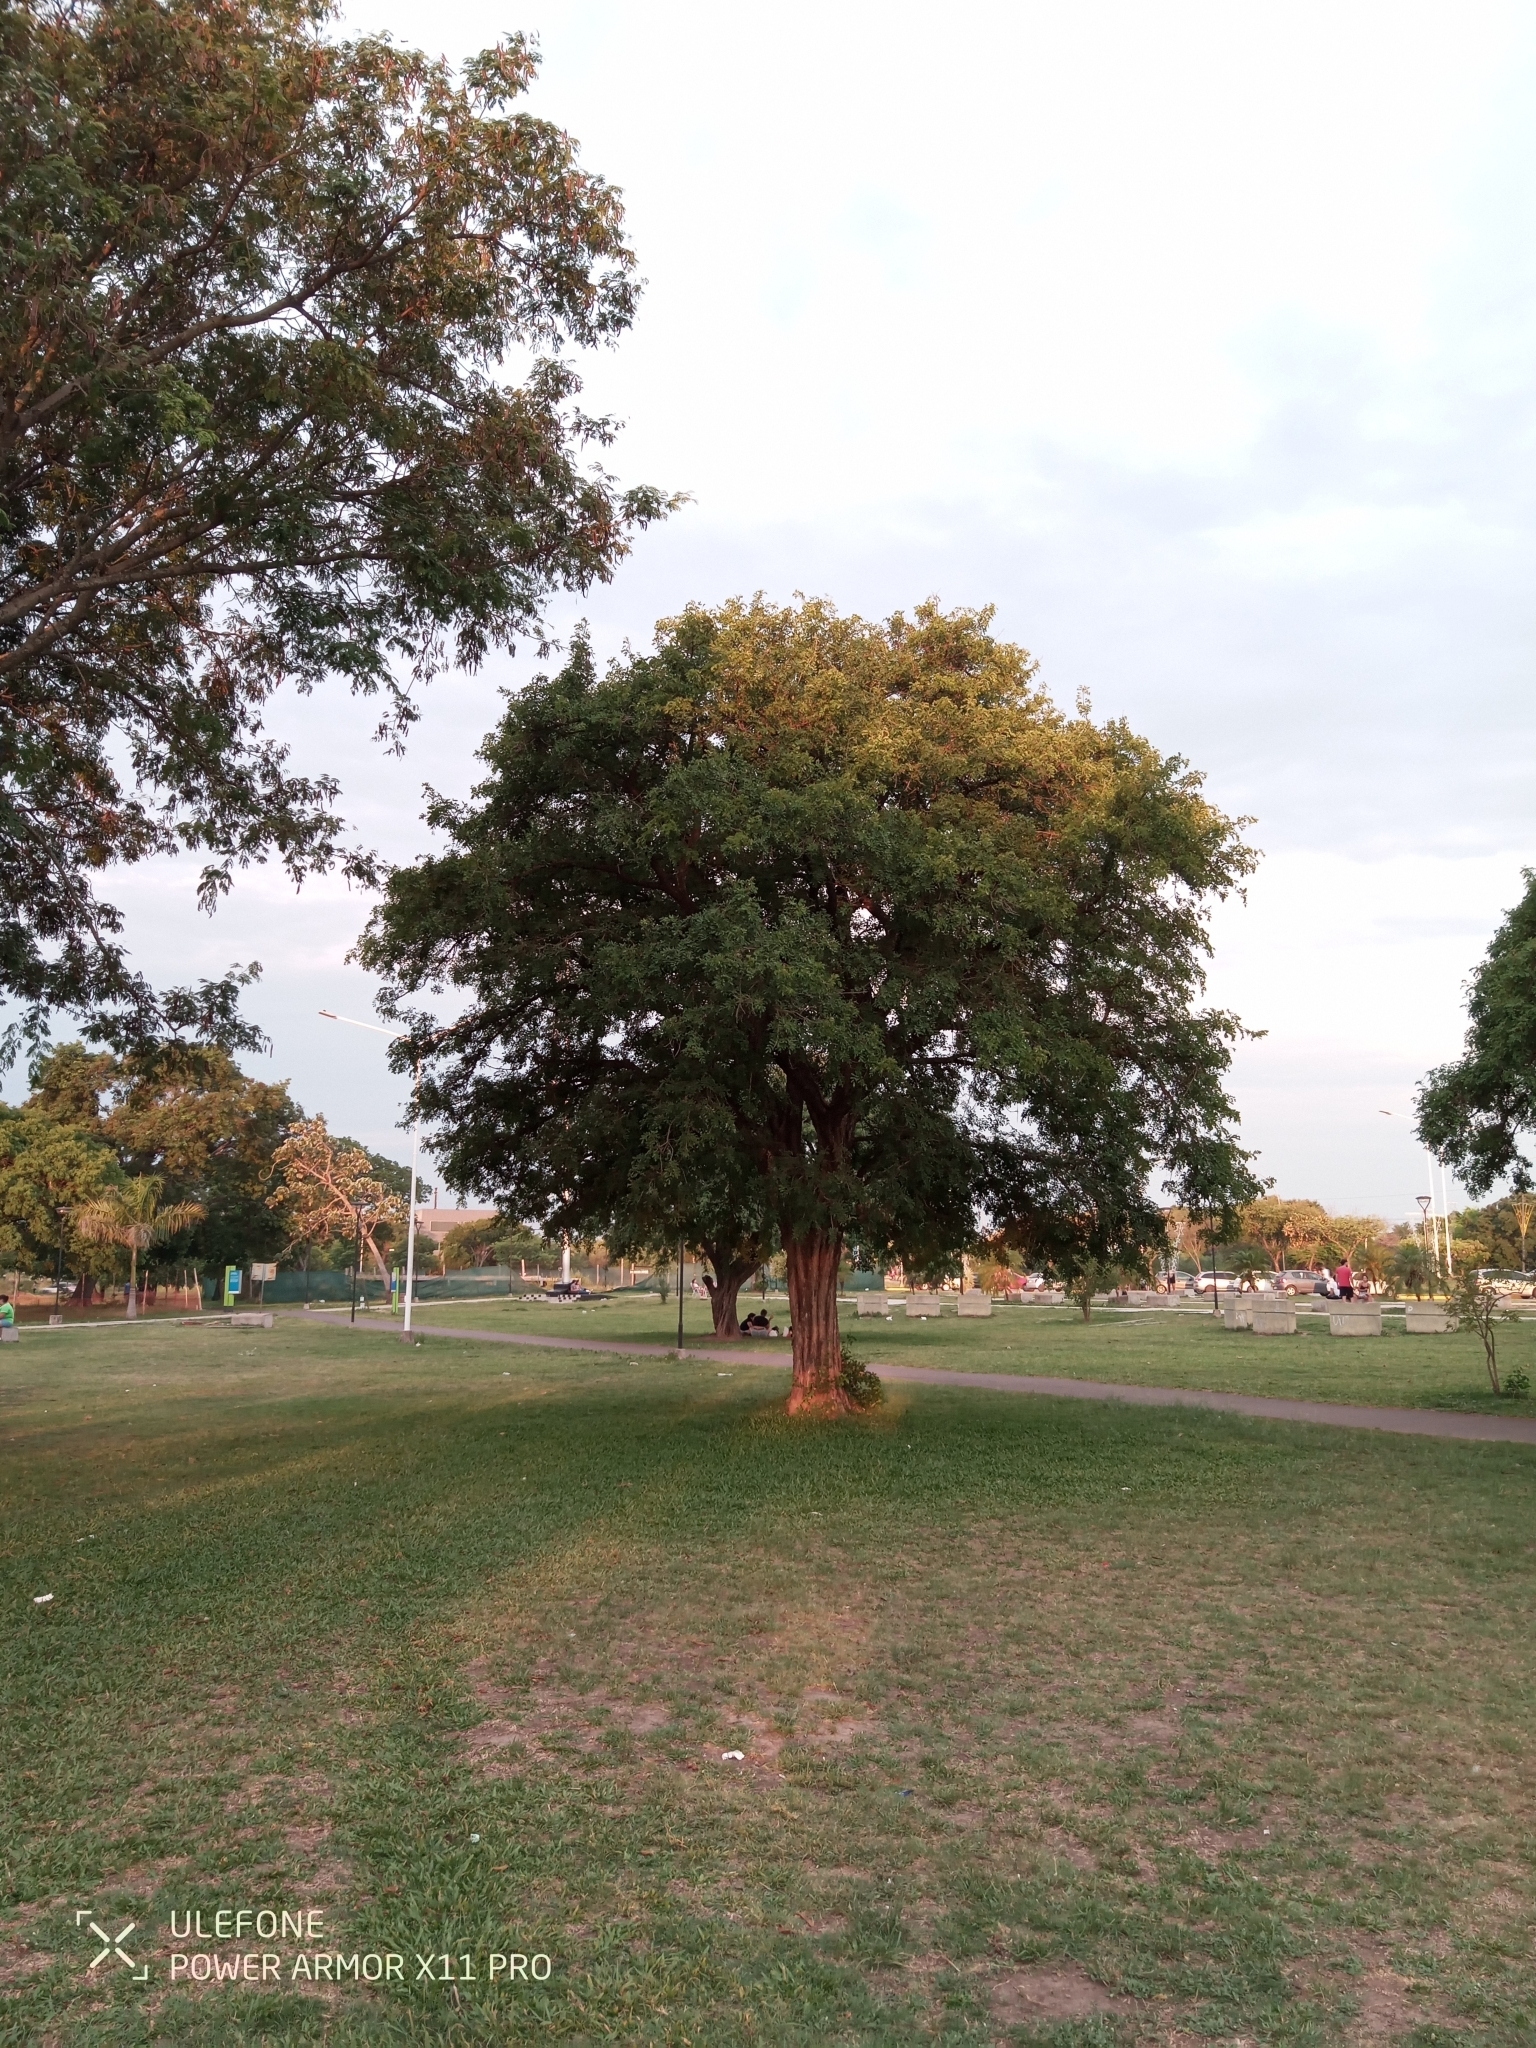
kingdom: Plantae
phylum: Tracheophyta
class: Magnoliopsida
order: Fabales
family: Fabaceae
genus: Geoffroea
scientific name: Geoffroea spinosa
